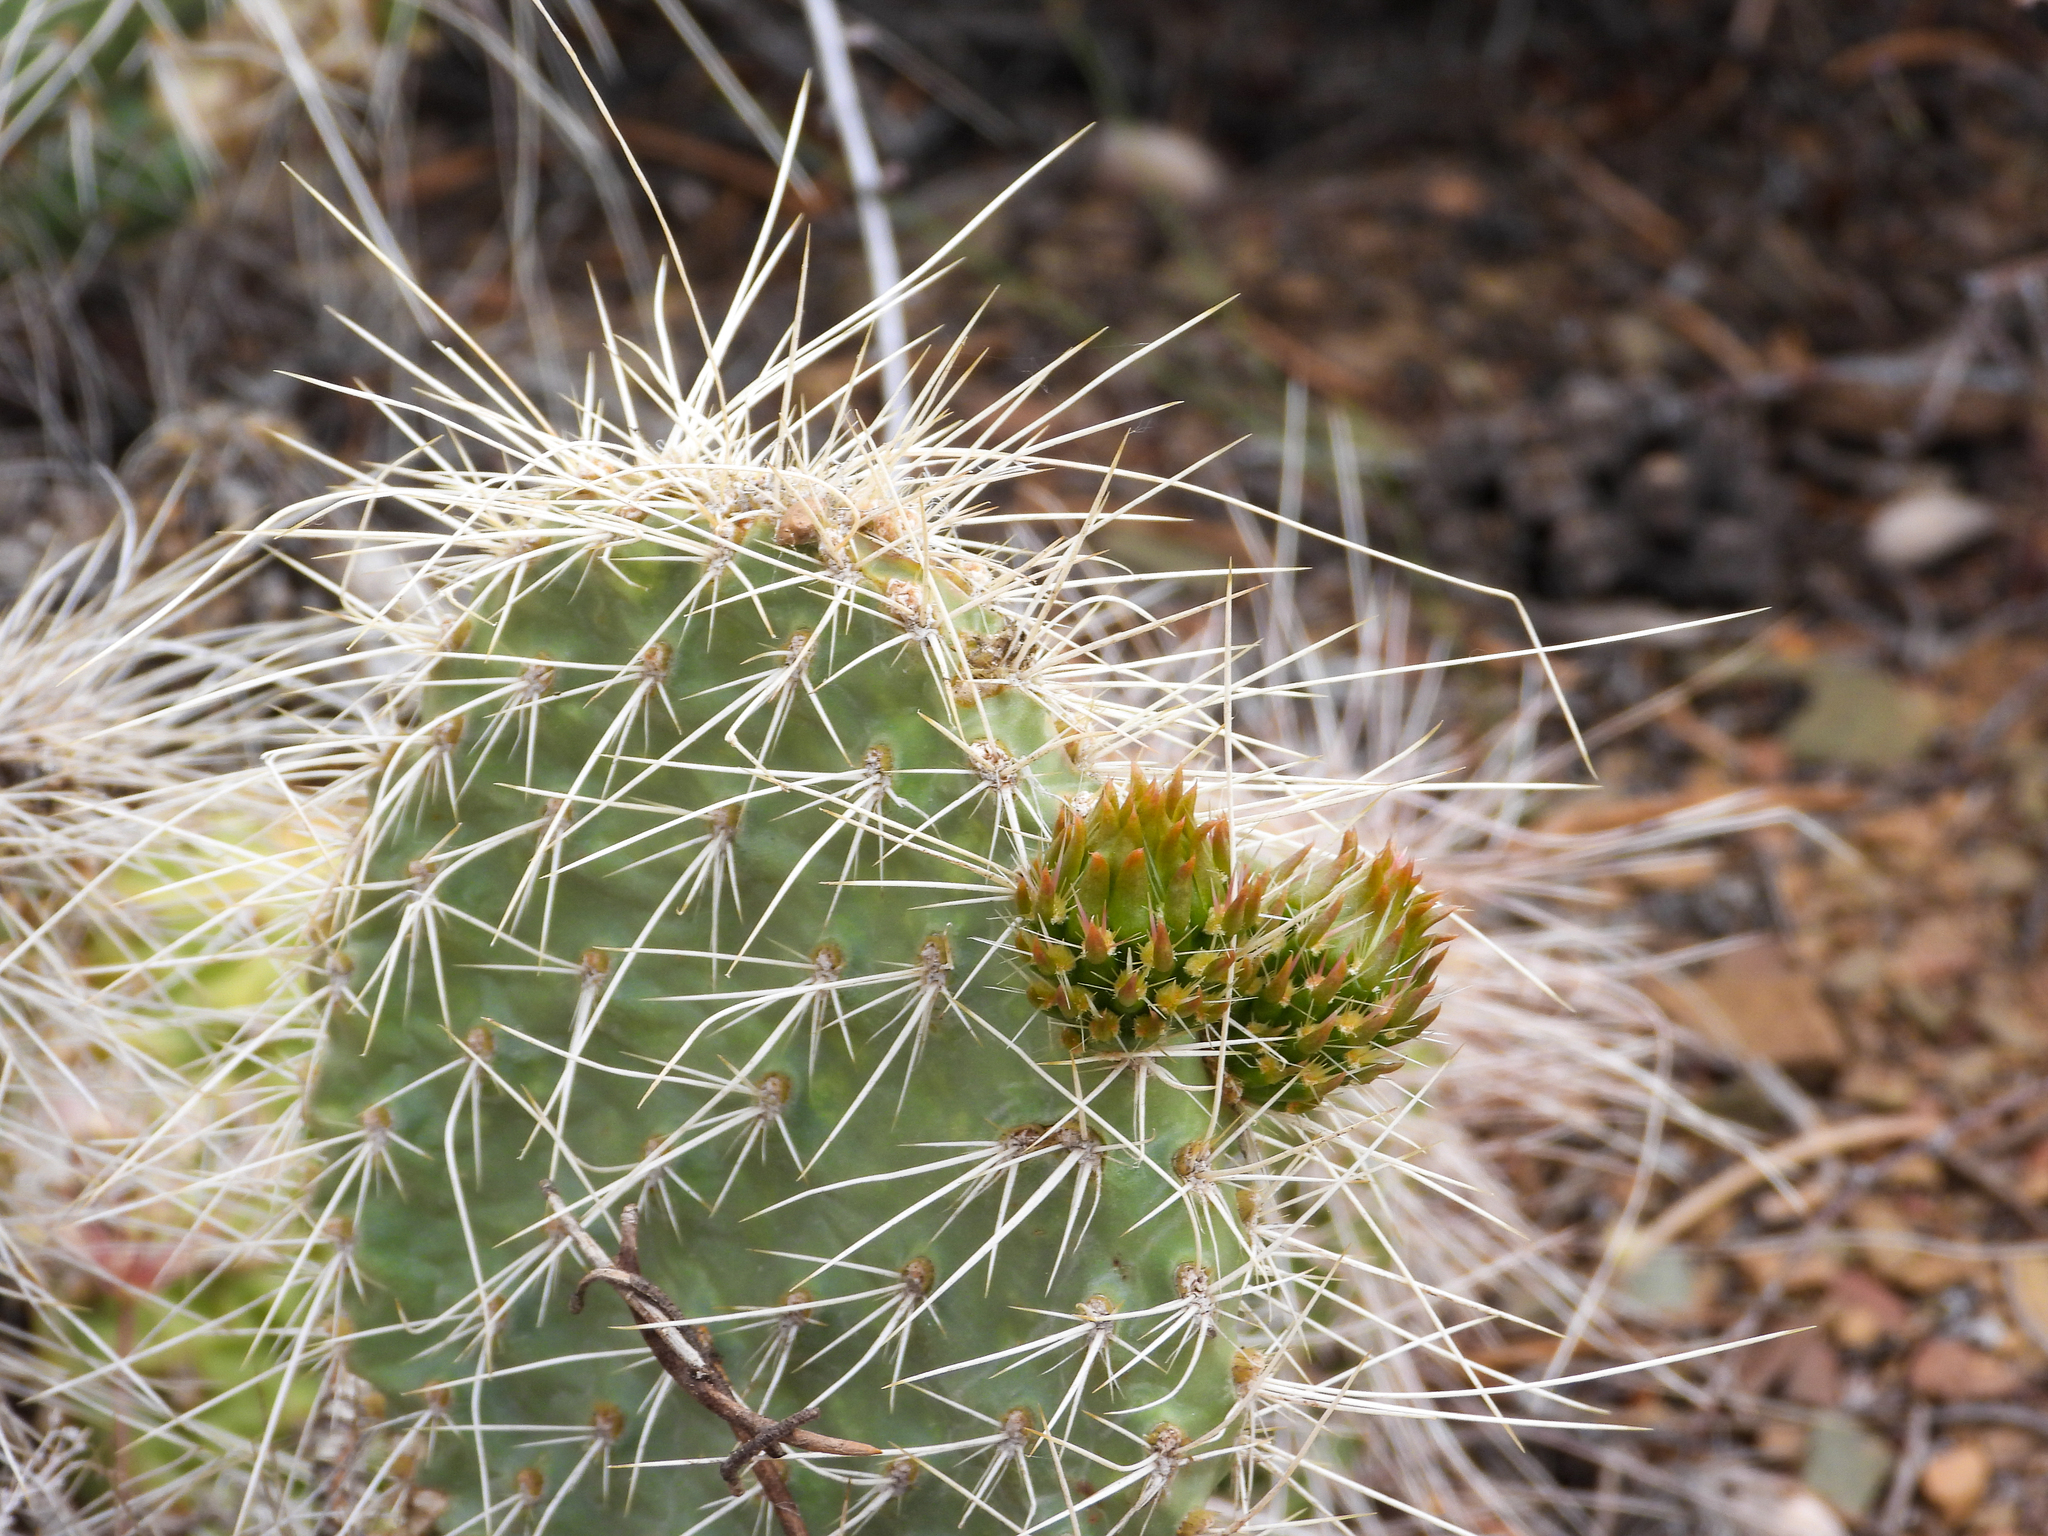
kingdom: Plantae
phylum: Tracheophyta
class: Magnoliopsida
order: Caryophyllales
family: Cactaceae
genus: Opuntia
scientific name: Opuntia polyacantha
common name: Plains prickly-pear
